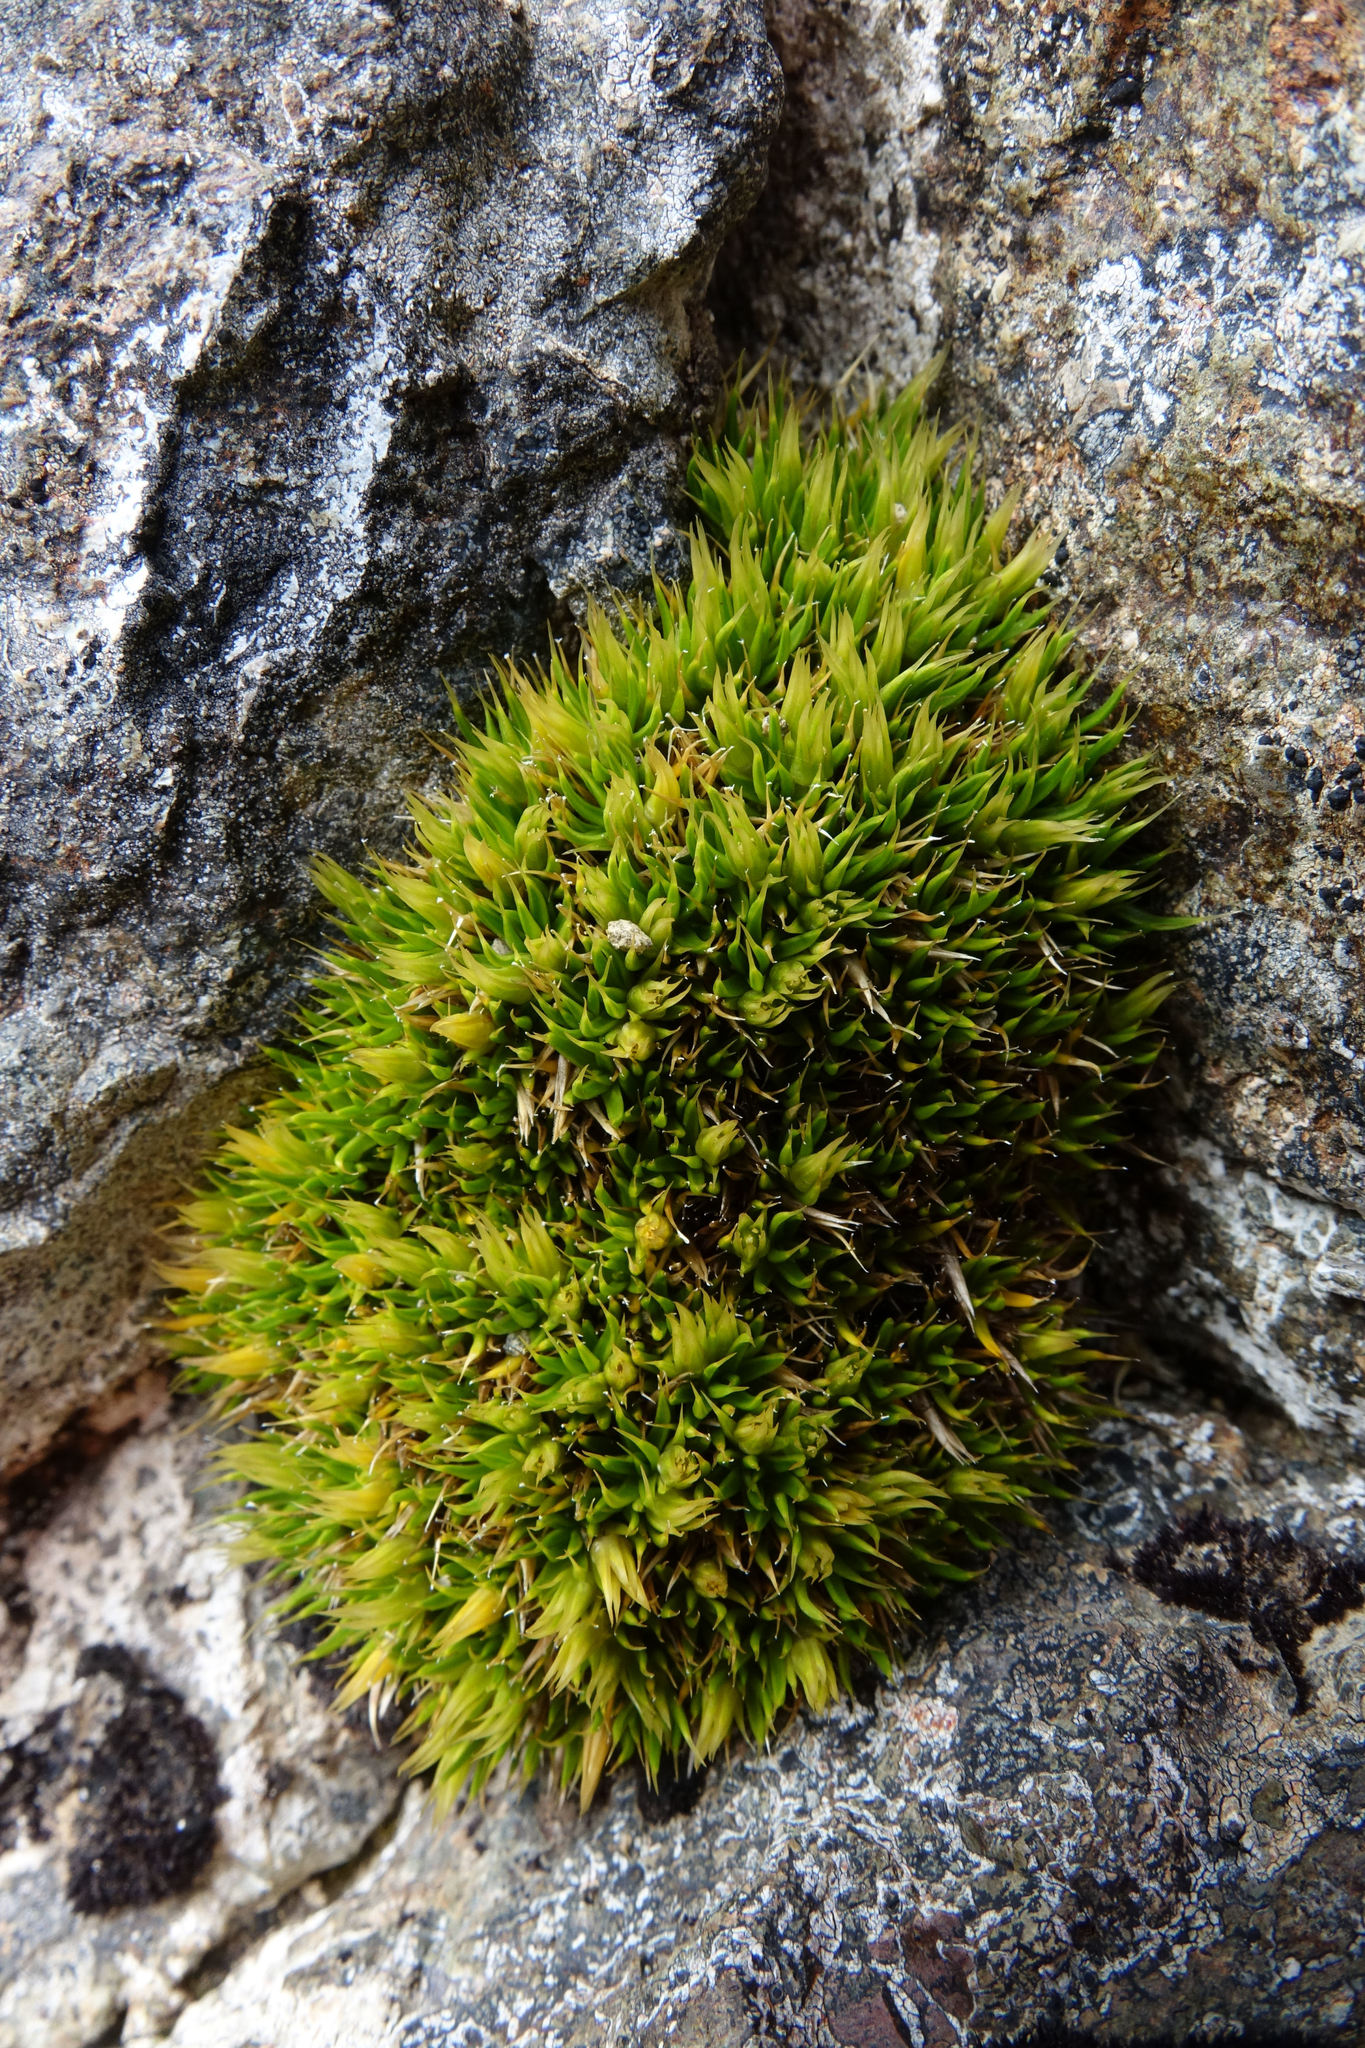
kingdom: Plantae
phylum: Tracheophyta
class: Magnoliopsida
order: Caryophyllales
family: Caryophyllaceae
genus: Colobanthus
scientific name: Colobanthus acicularis
